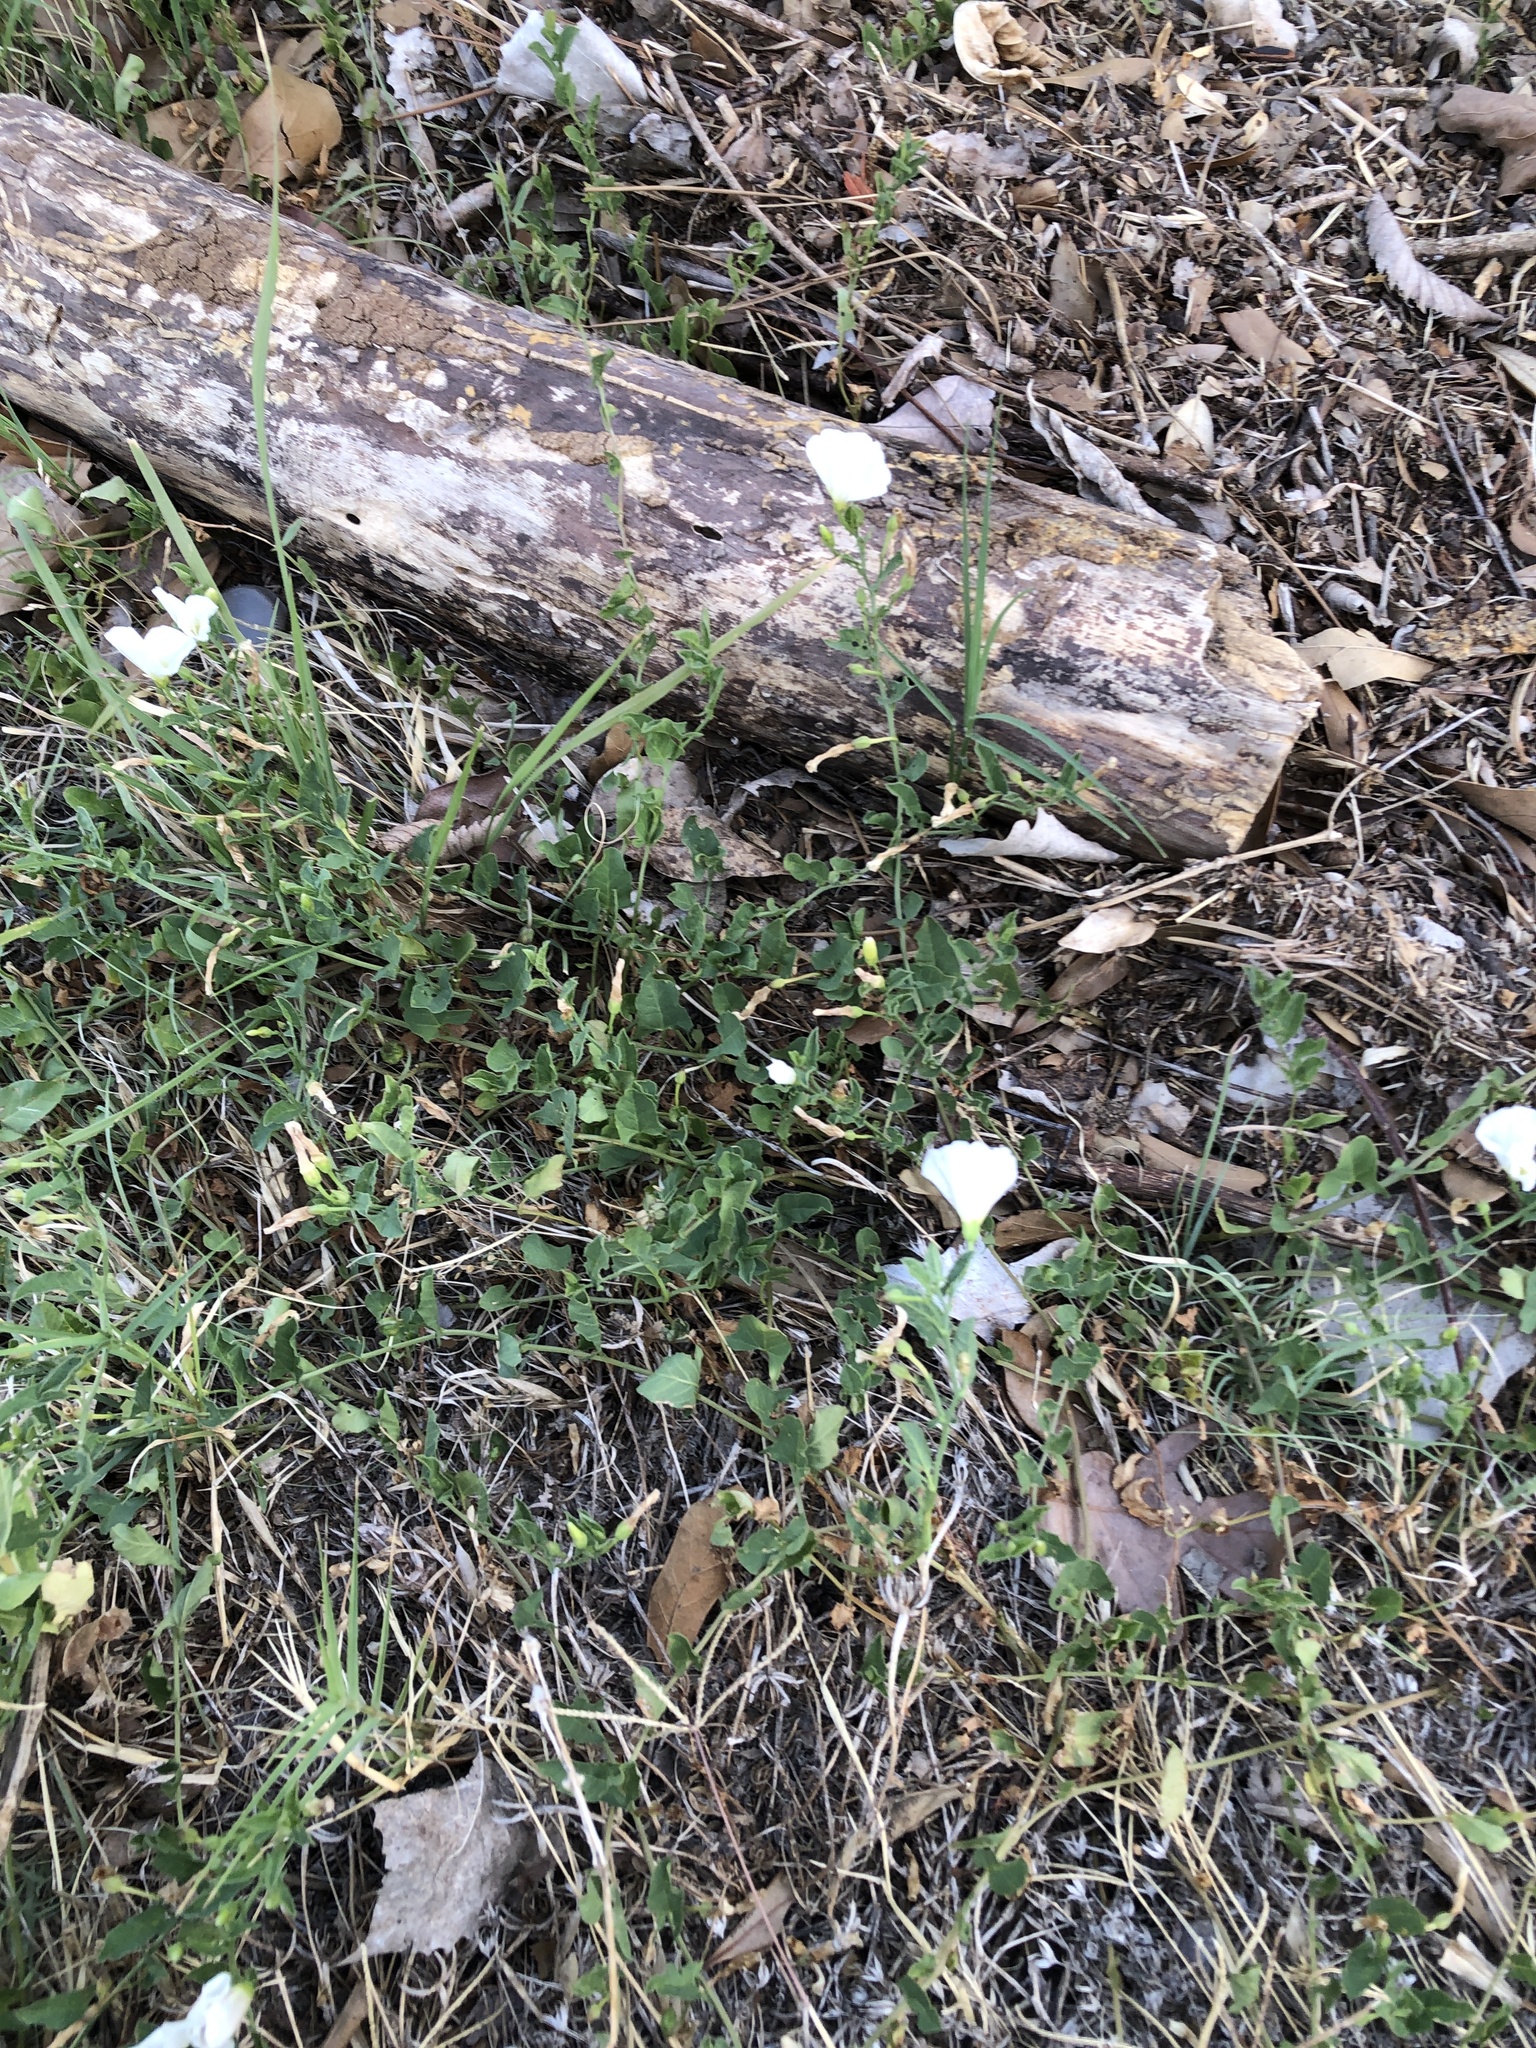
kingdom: Plantae
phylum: Tracheophyta
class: Magnoliopsida
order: Solanales
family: Convolvulaceae
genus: Convolvulus
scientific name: Convolvulus arvensis
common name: Field bindweed
